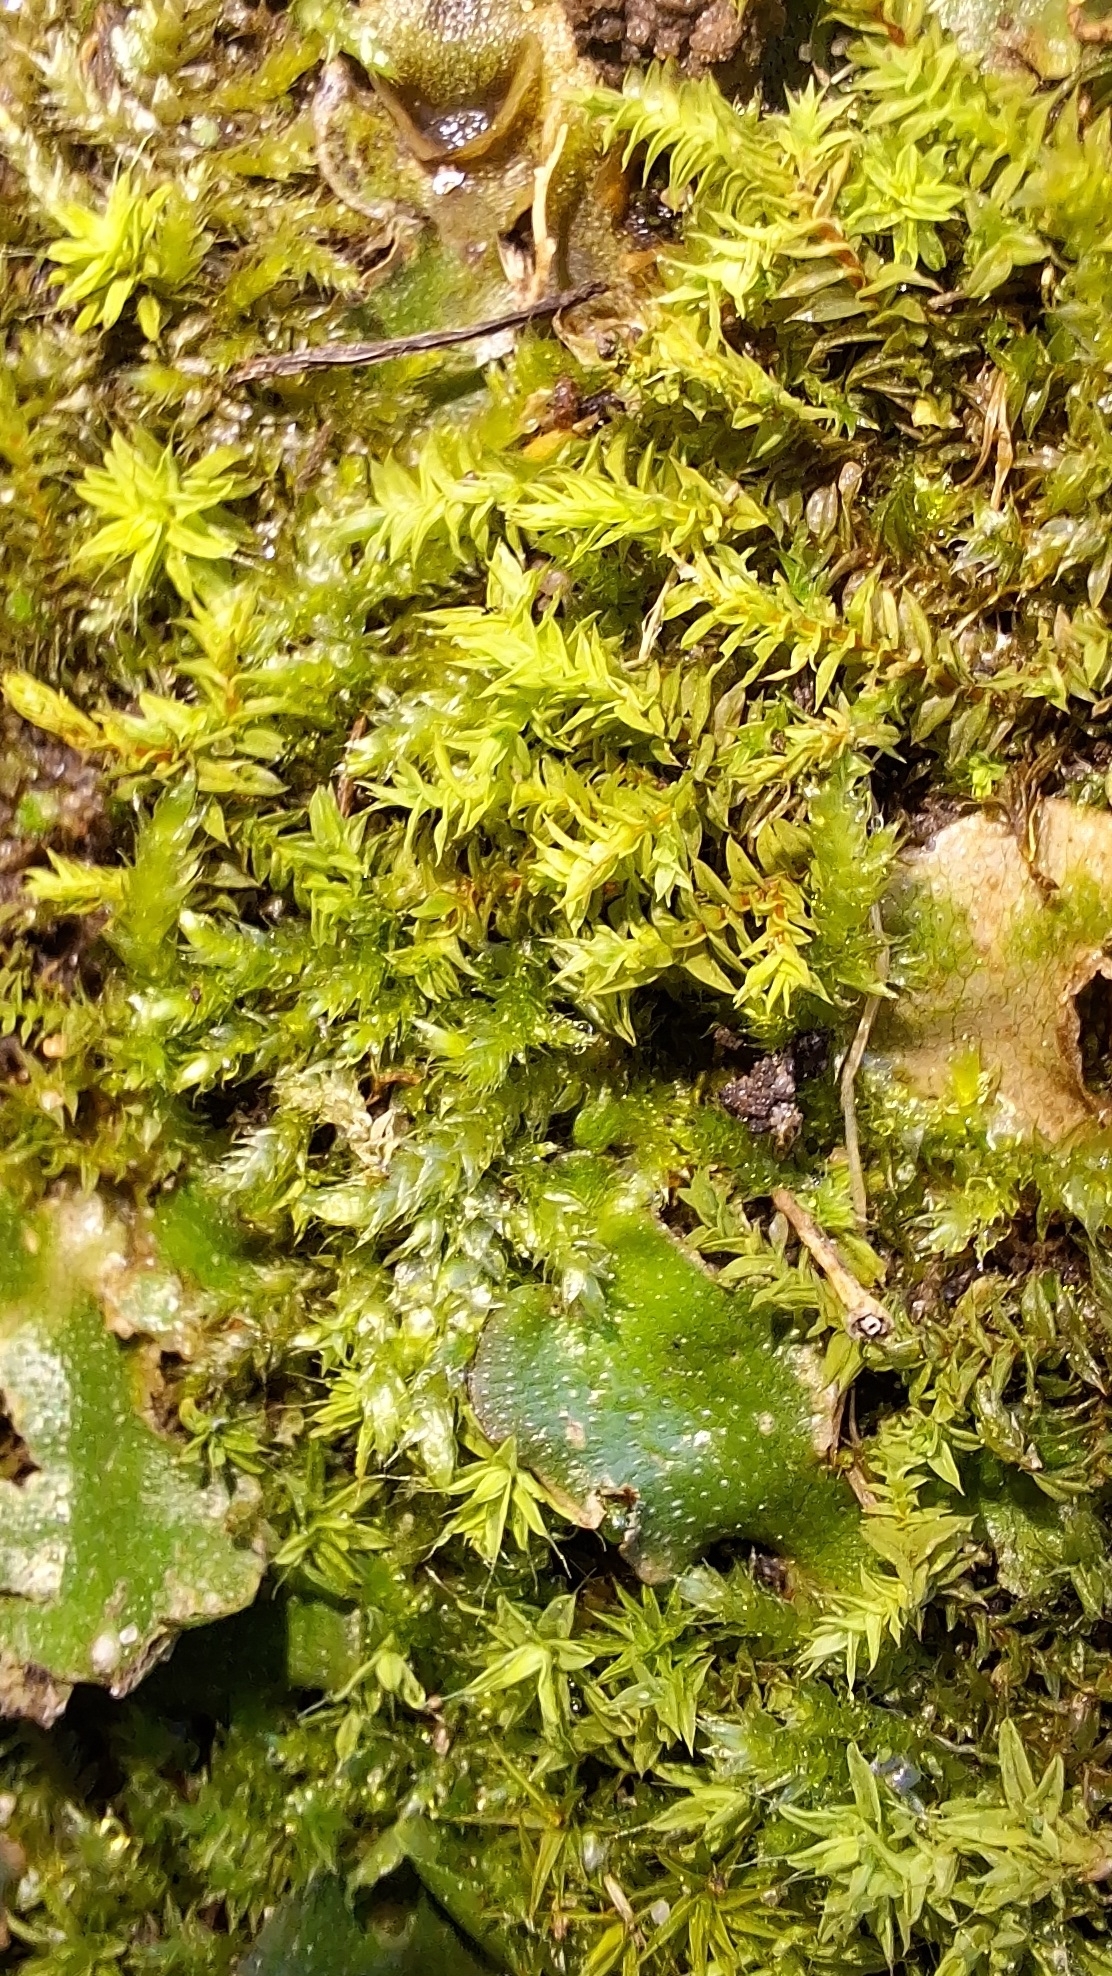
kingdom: Plantae
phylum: Bryophyta
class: Bryopsida
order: Pottiales
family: Pottiaceae
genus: Triquetrella
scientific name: Triquetrella papillata
